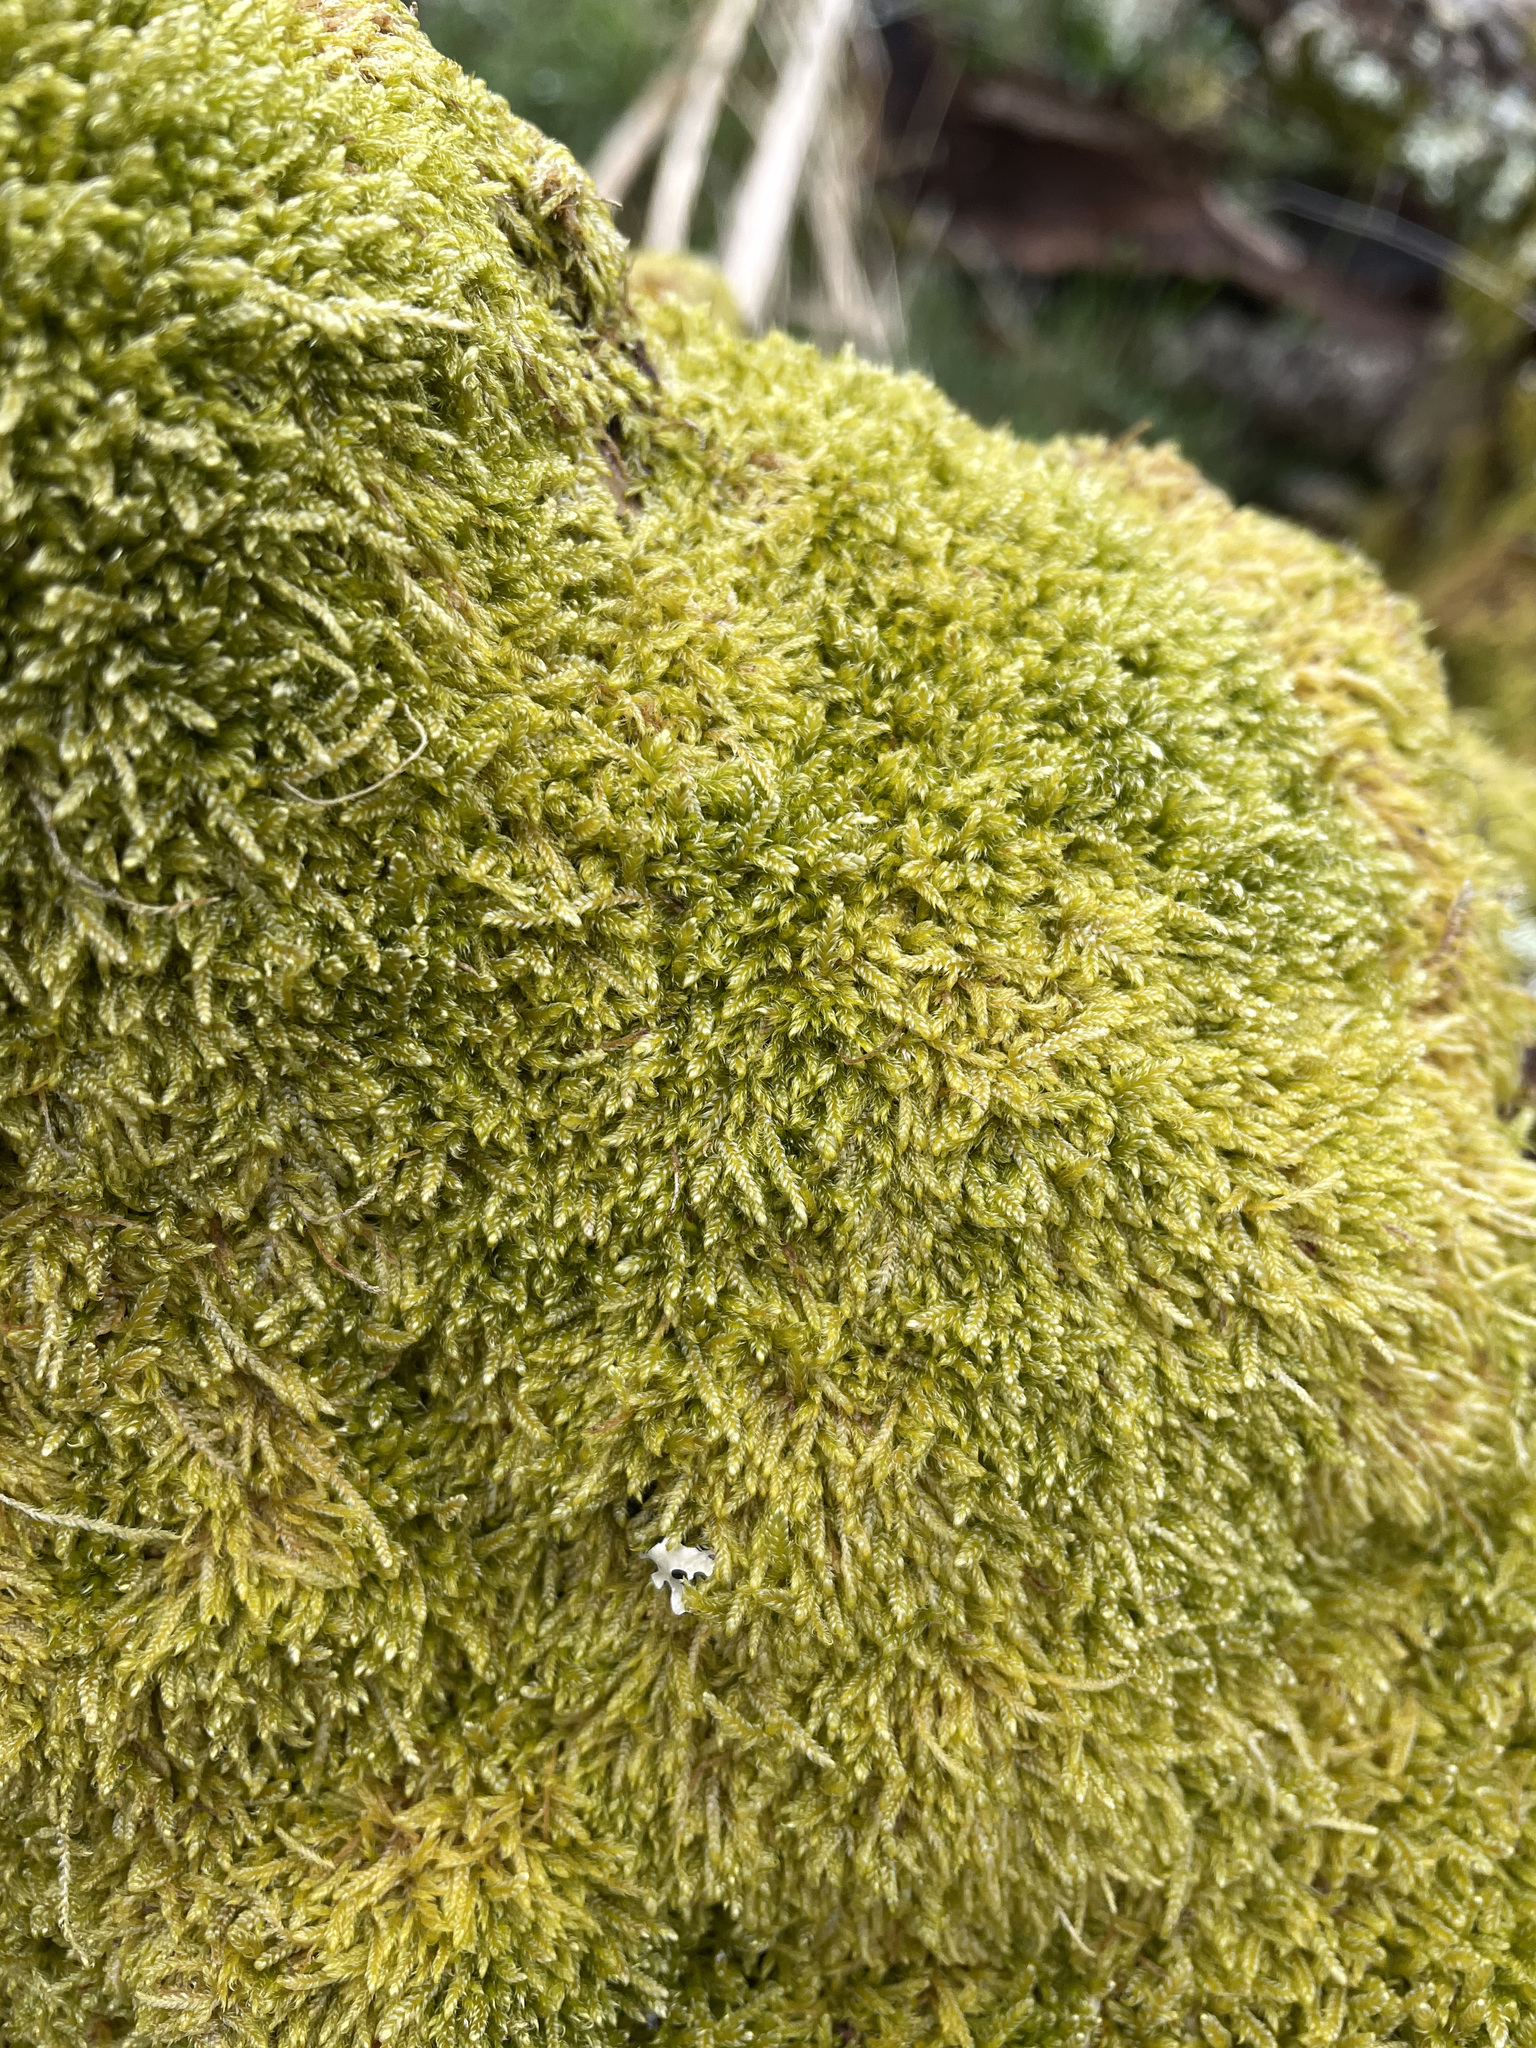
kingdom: Plantae
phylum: Bryophyta
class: Bryopsida
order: Hypnales
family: Hypnaceae
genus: Hypnum
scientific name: Hypnum cupressiforme
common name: Cypress-leaved plait-moss
